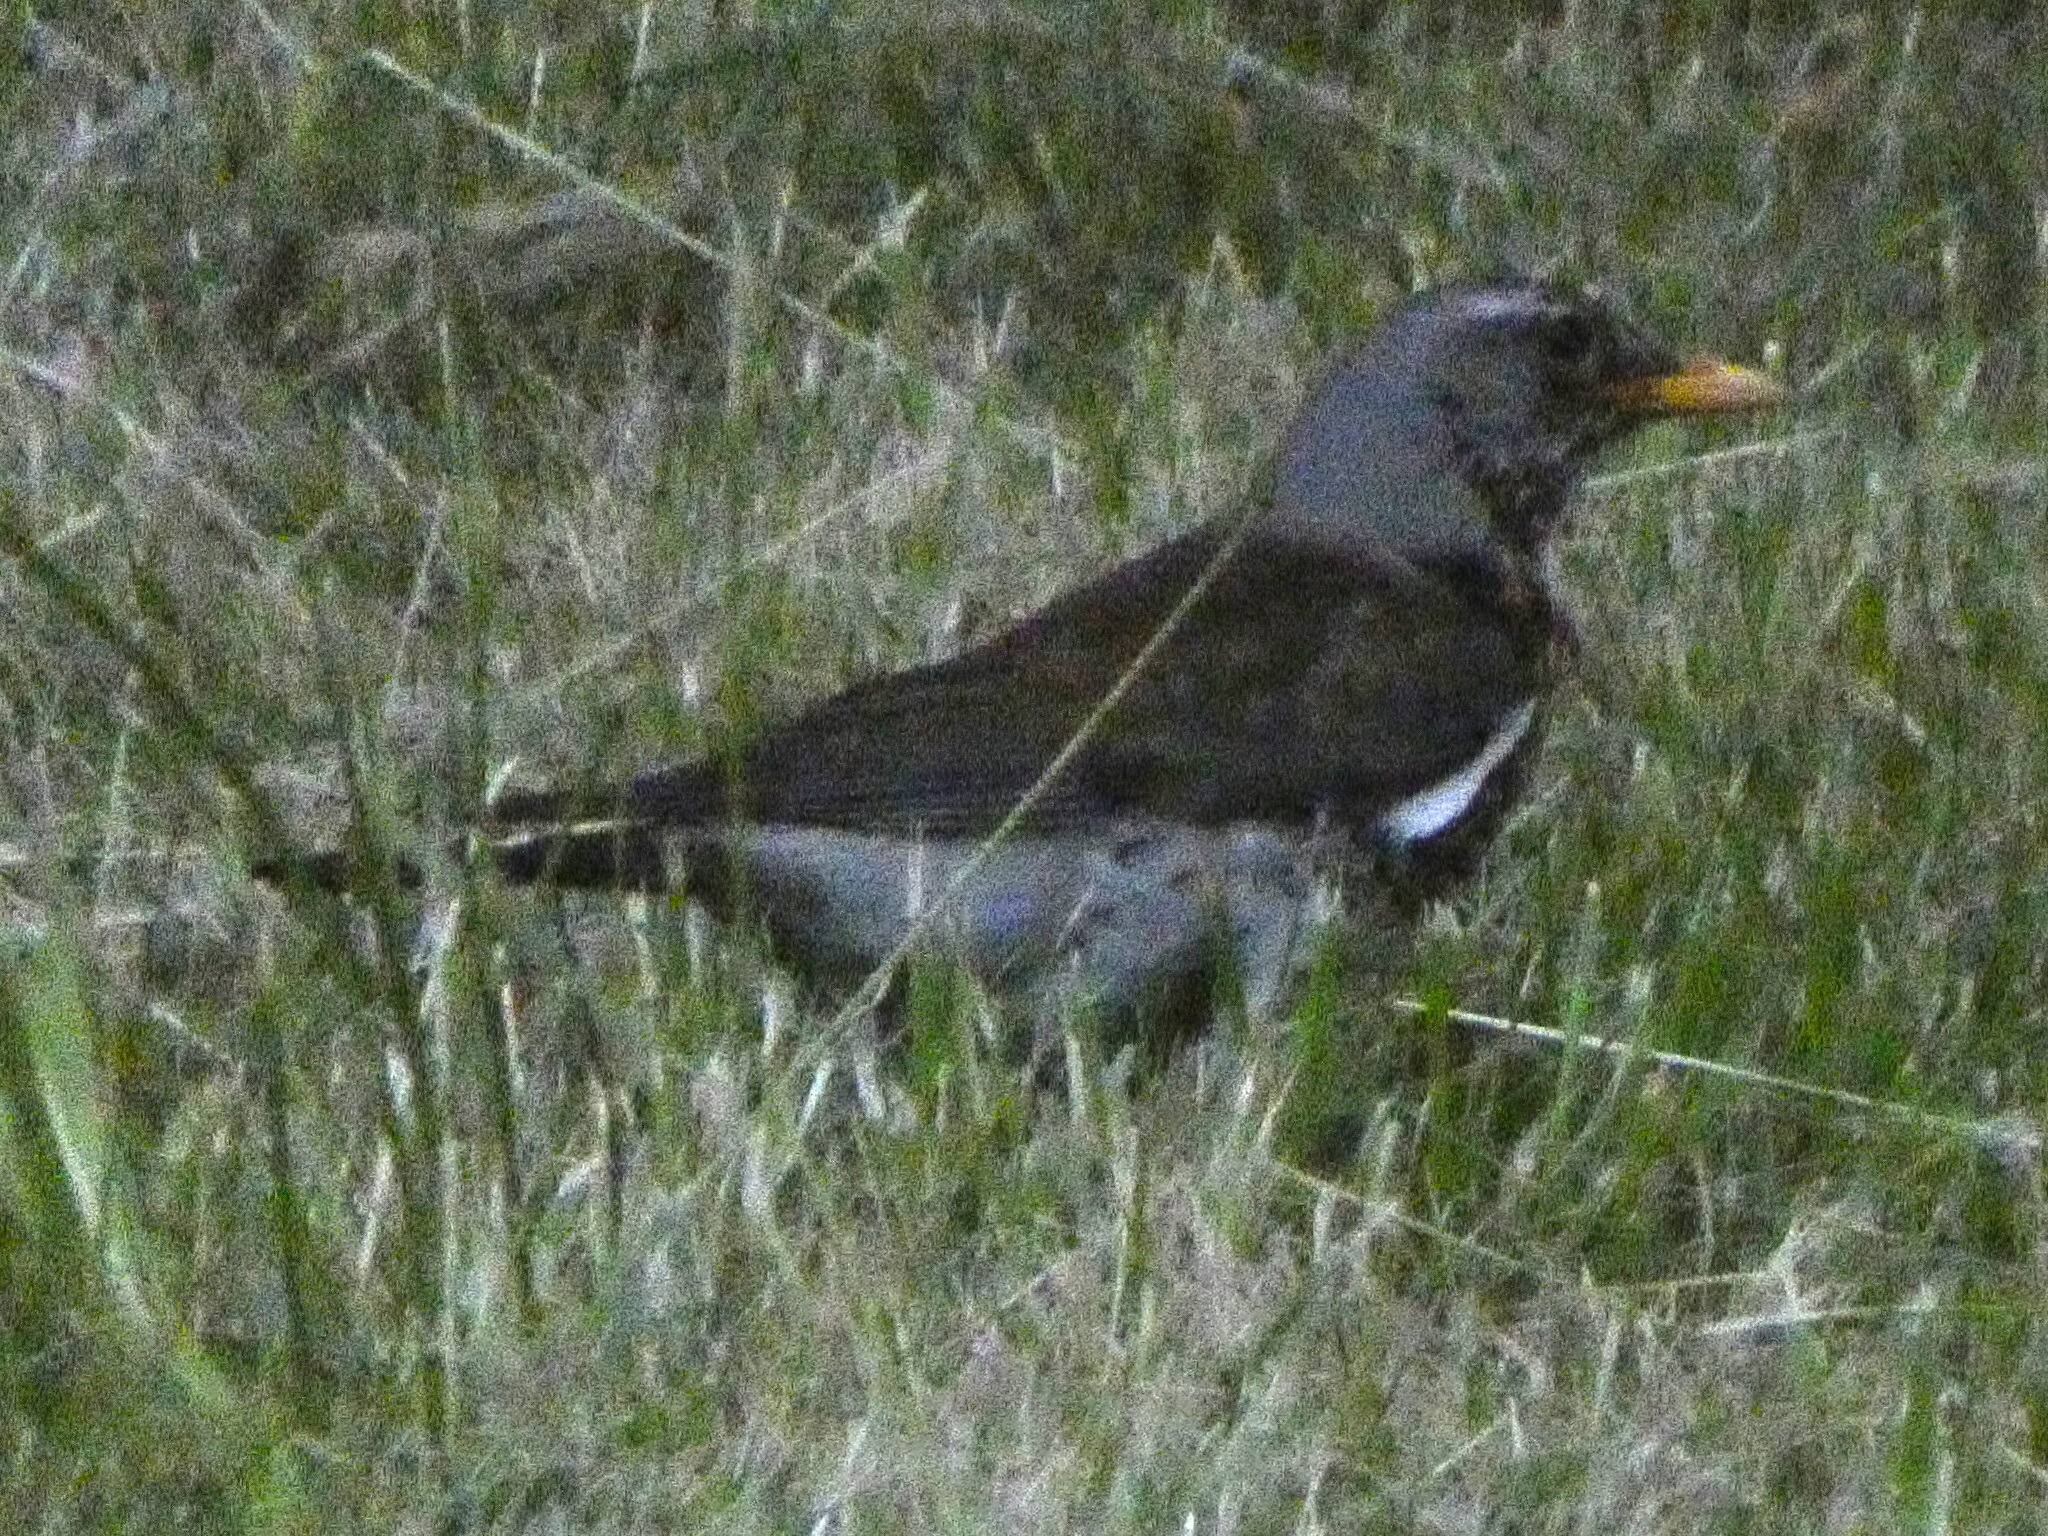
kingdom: Animalia
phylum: Chordata
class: Aves
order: Passeriformes
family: Turdidae
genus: Turdus
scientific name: Turdus pilaris
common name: Fieldfare
